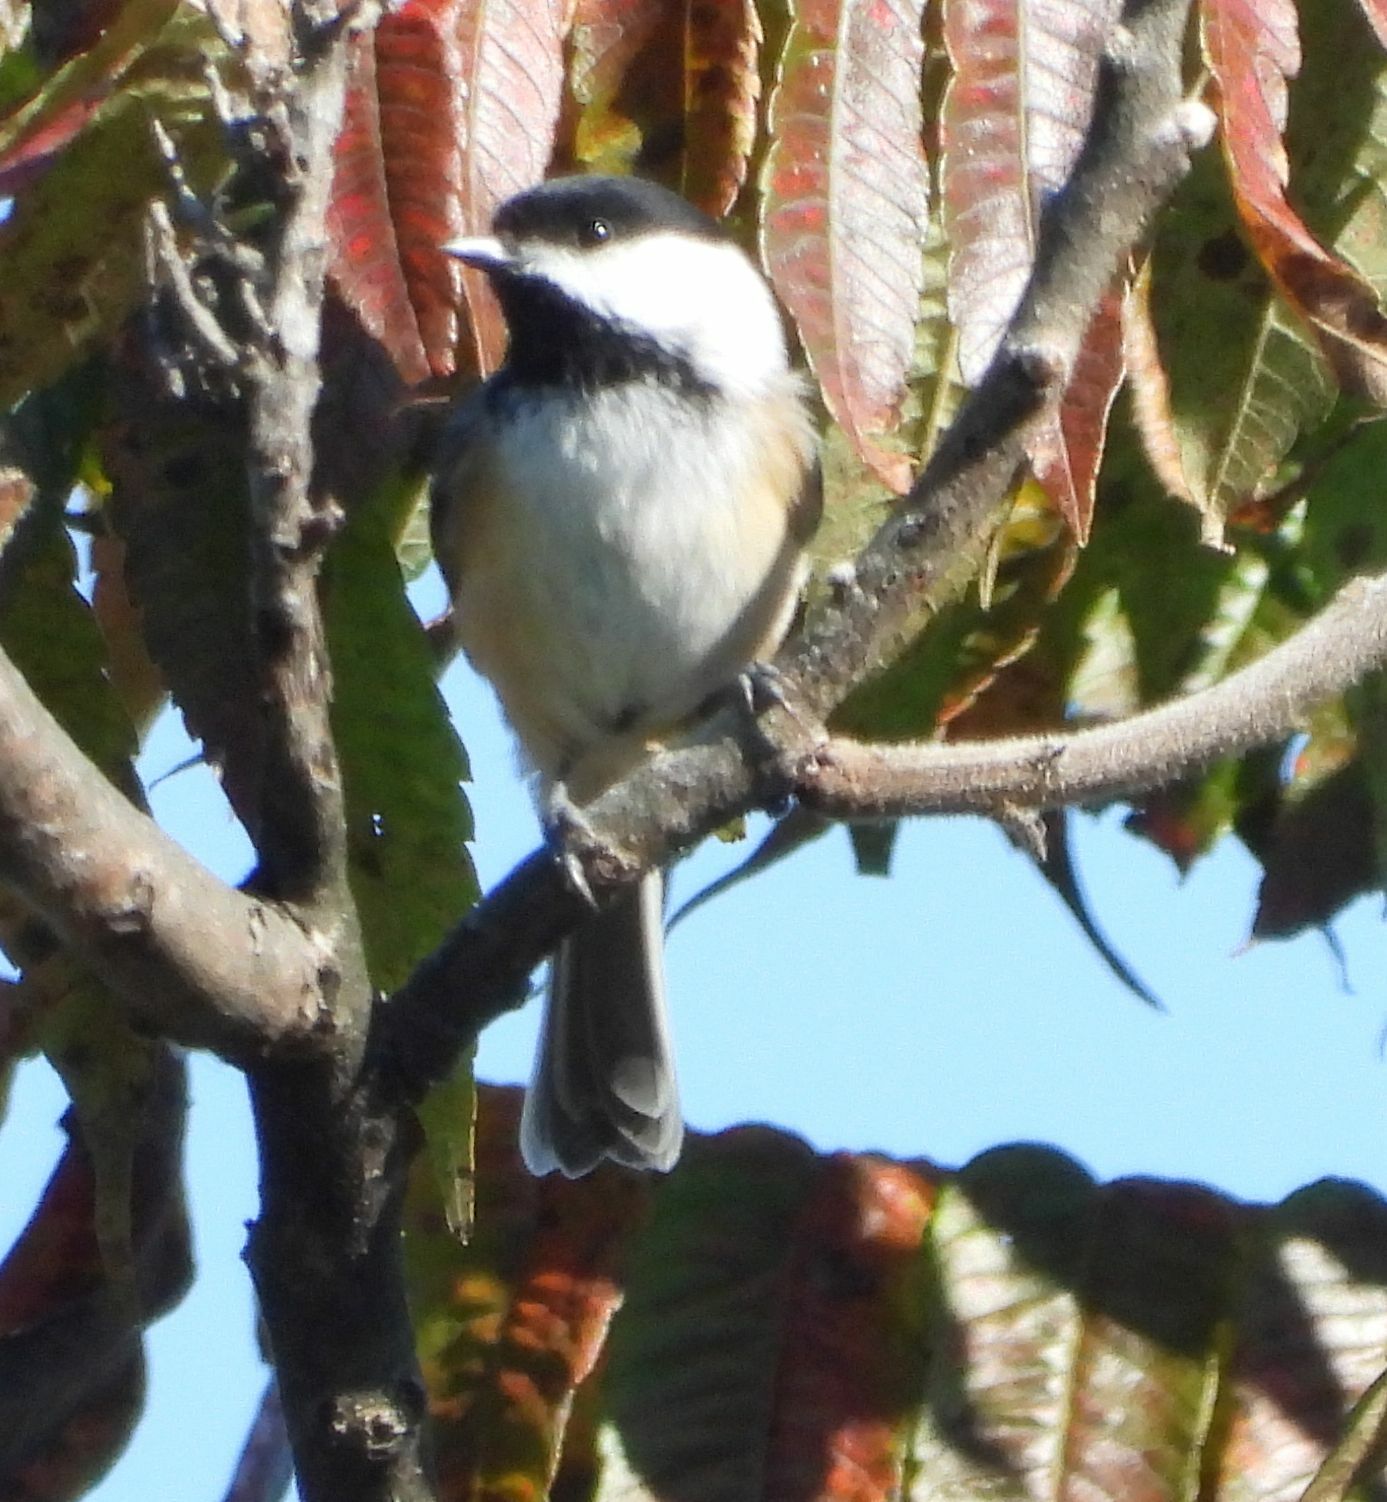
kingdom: Animalia
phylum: Chordata
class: Aves
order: Passeriformes
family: Paridae
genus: Poecile
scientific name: Poecile atricapillus
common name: Black-capped chickadee
